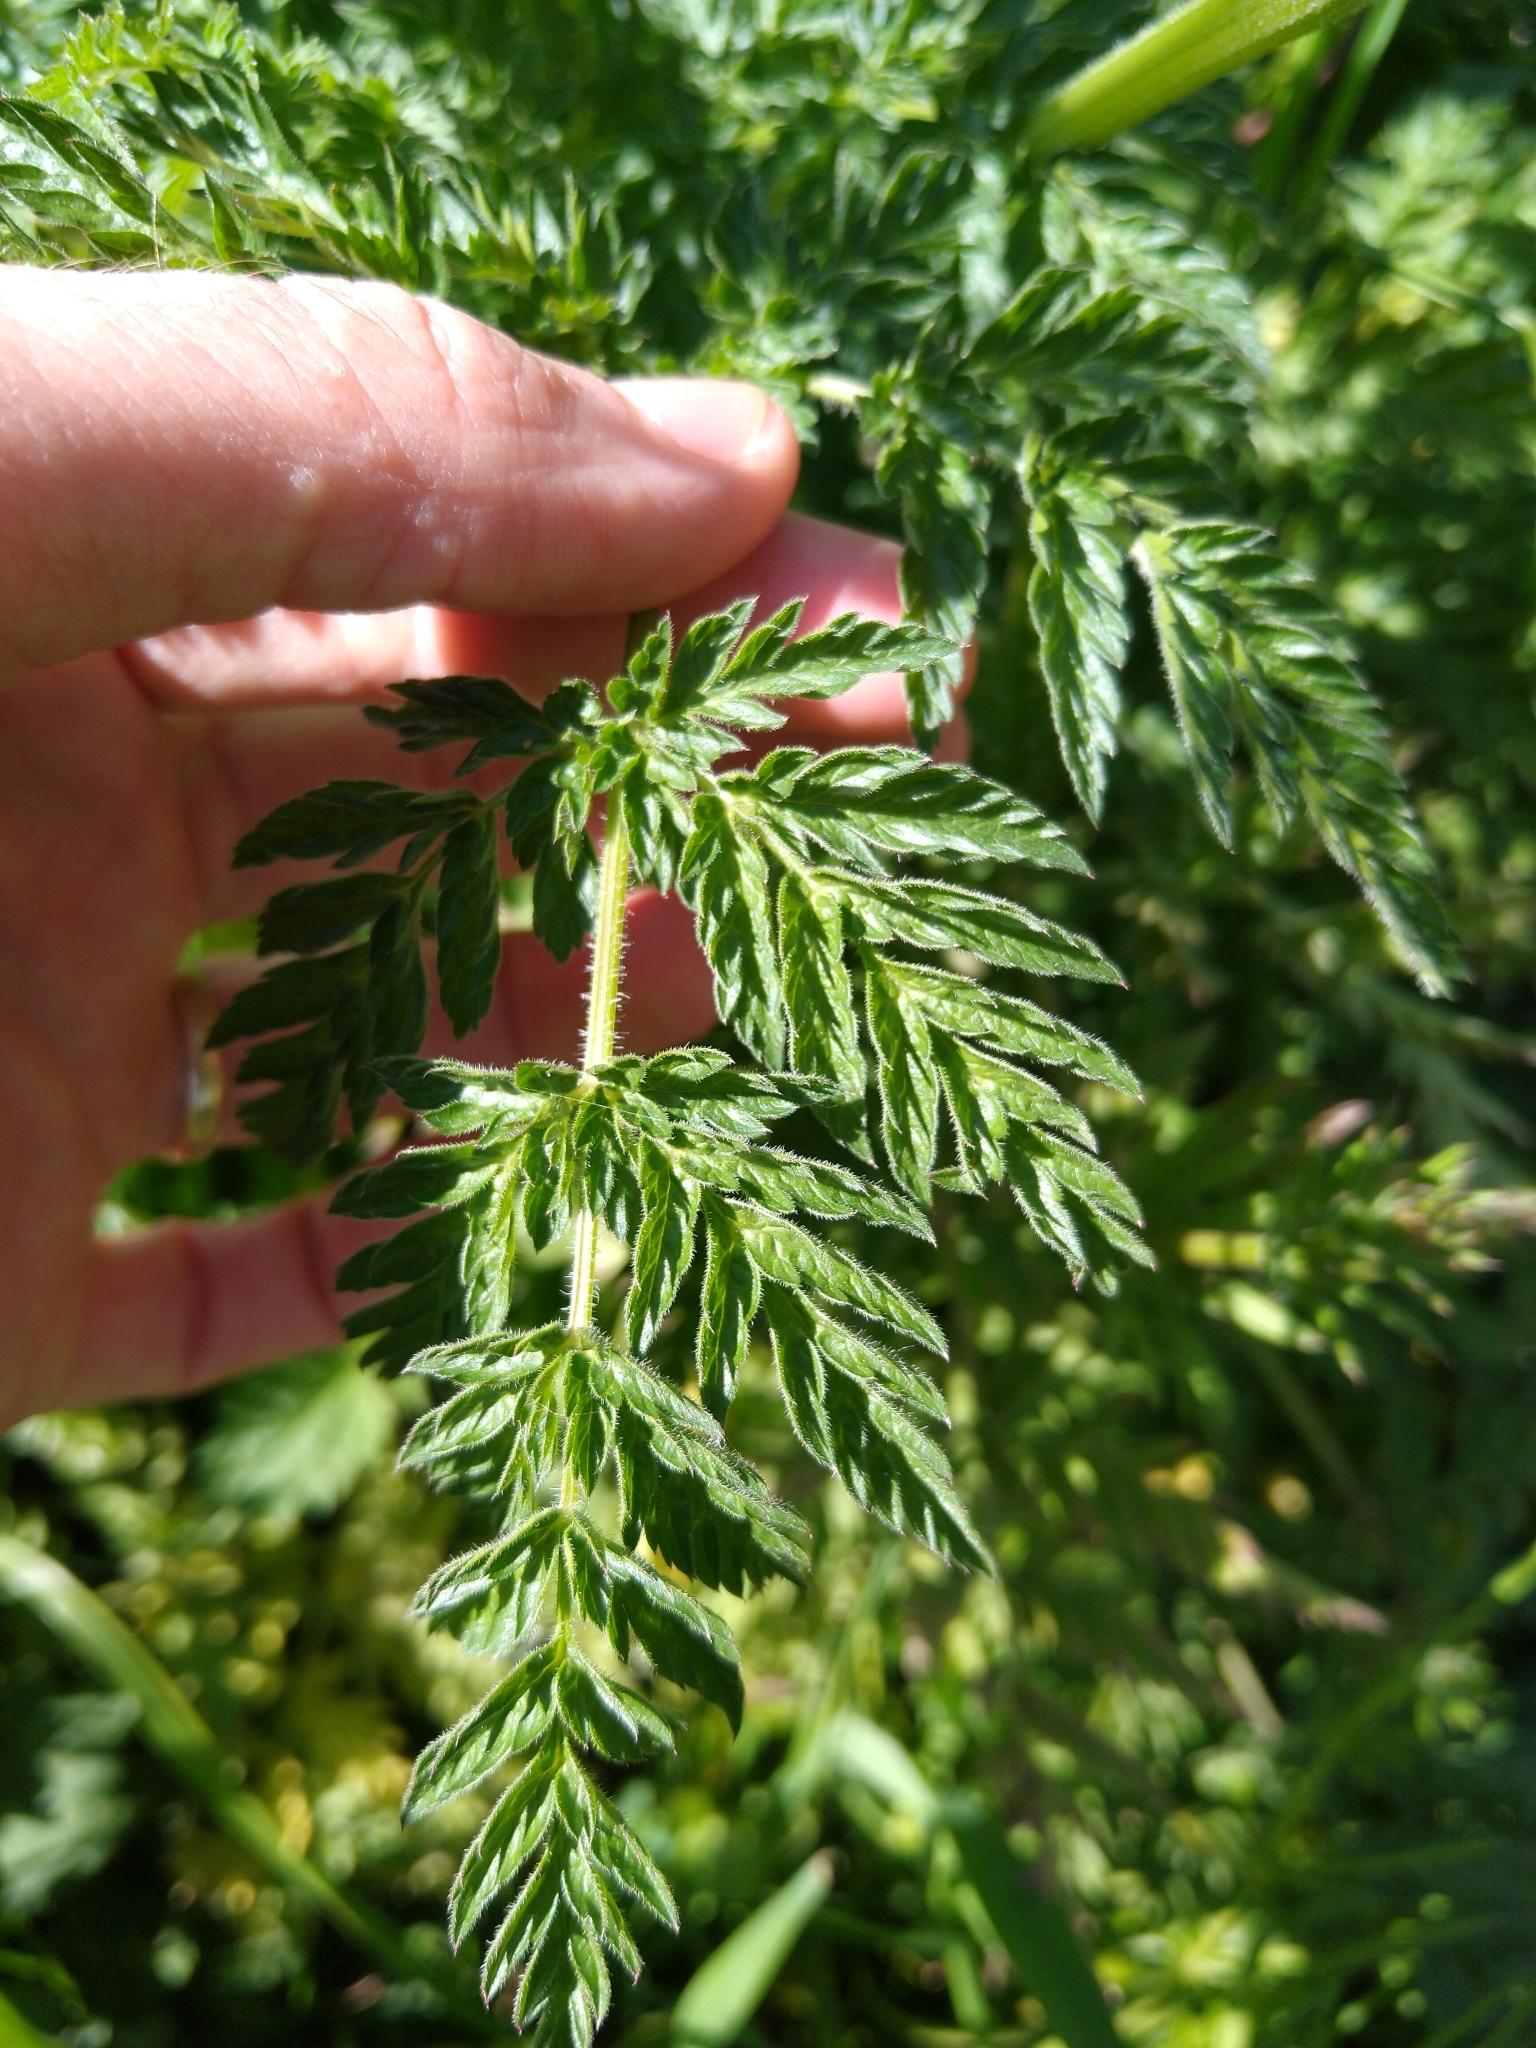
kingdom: Plantae
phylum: Tracheophyta
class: Magnoliopsida
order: Apiales
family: Apiaceae
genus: Anthriscus
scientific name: Anthriscus sylvestris
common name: Cow parsley
